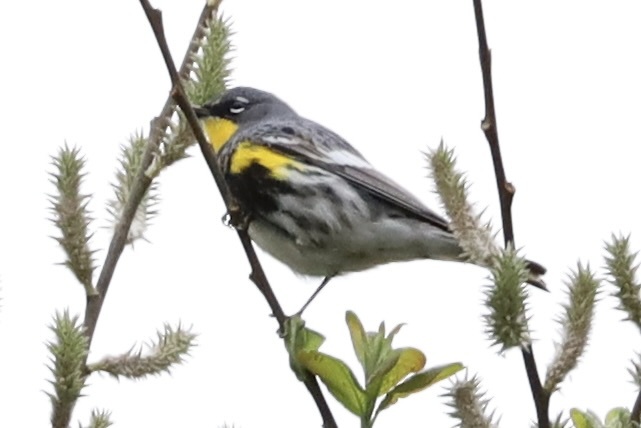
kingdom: Animalia
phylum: Chordata
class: Aves
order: Passeriformes
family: Parulidae
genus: Setophaga
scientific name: Setophaga coronata
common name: Myrtle warbler
